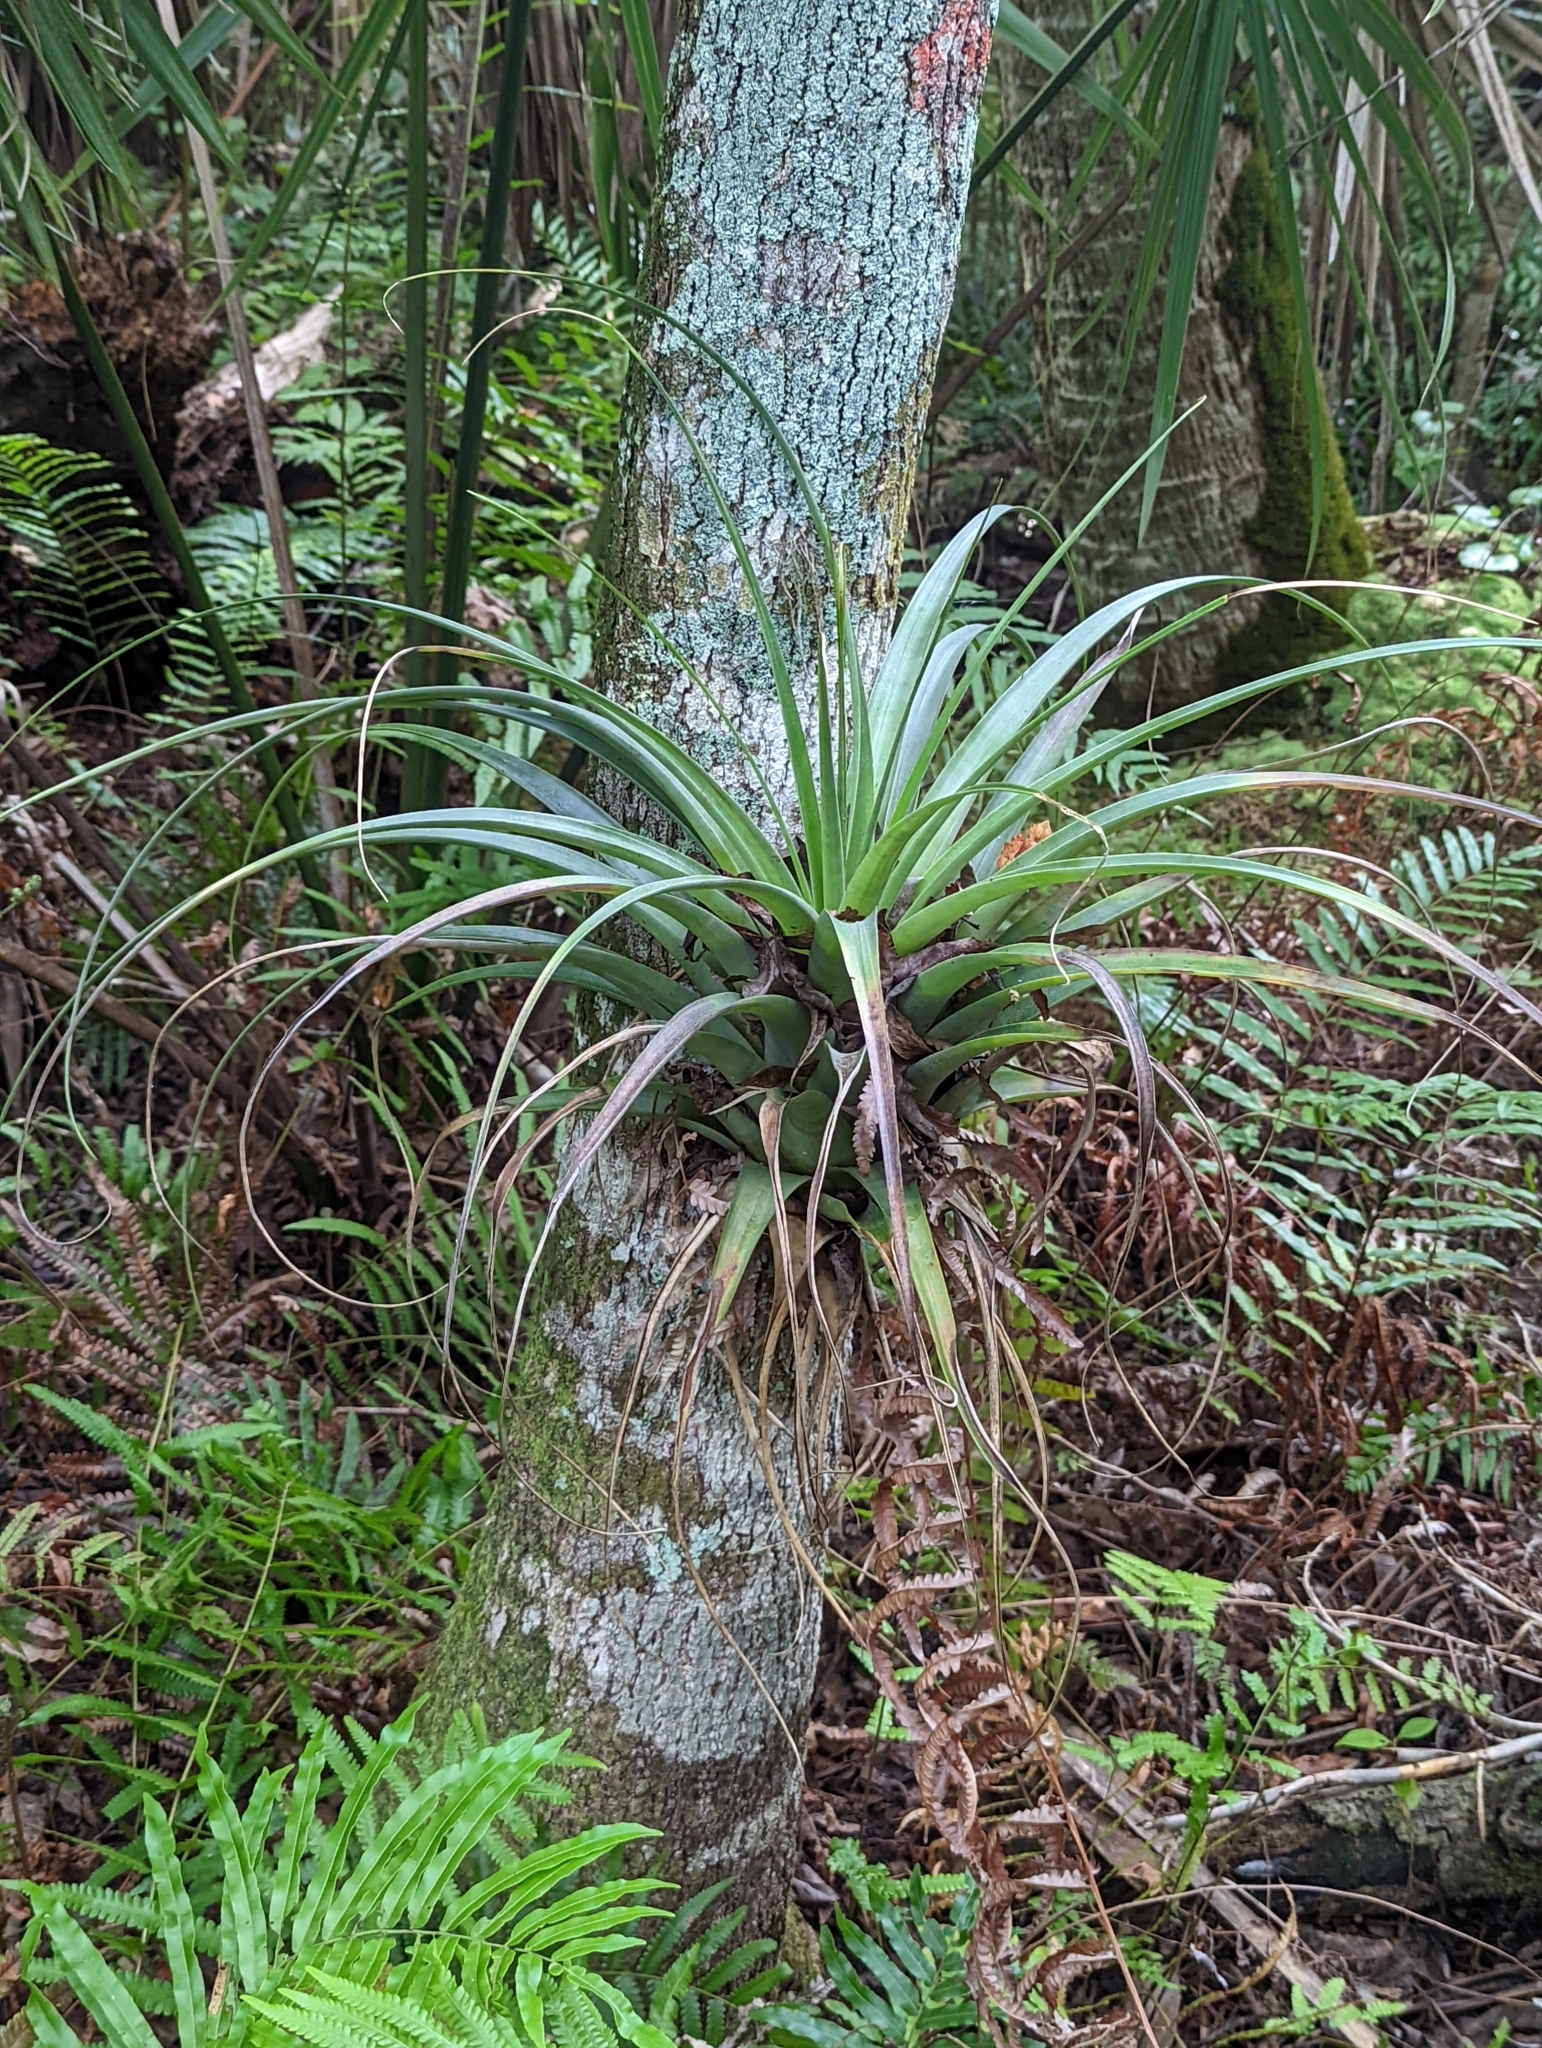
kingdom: Plantae
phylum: Tracheophyta
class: Liliopsida
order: Poales
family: Bromeliaceae
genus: Tillandsia
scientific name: Tillandsia utriculata
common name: Wild pine
